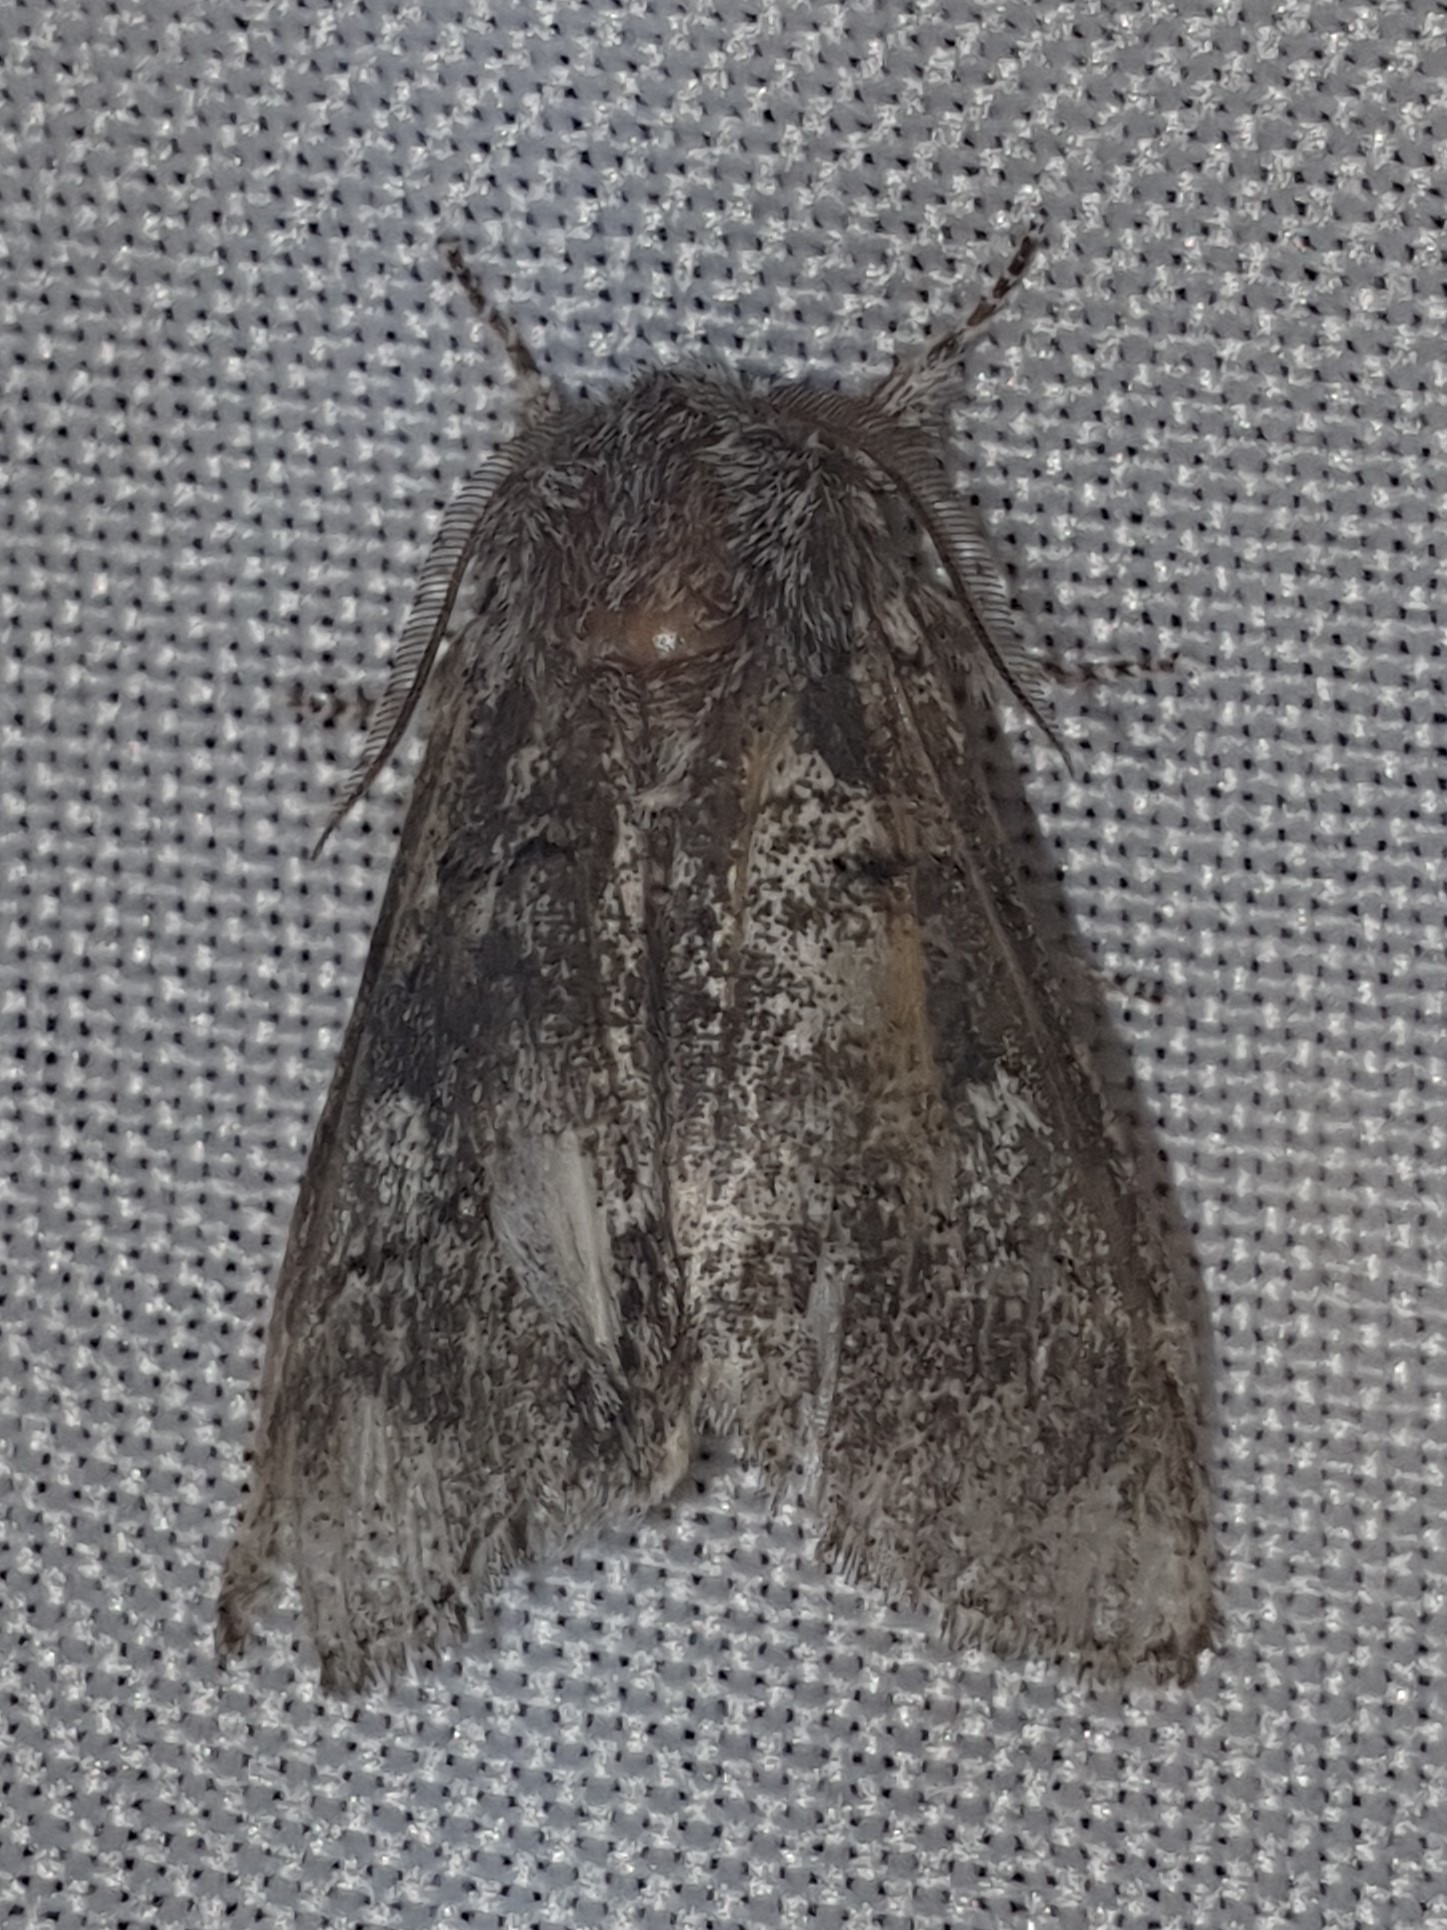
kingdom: Animalia
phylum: Arthropoda
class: Insecta
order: Lepidoptera
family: Notodontidae
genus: Drymonia
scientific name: Drymonia querna
